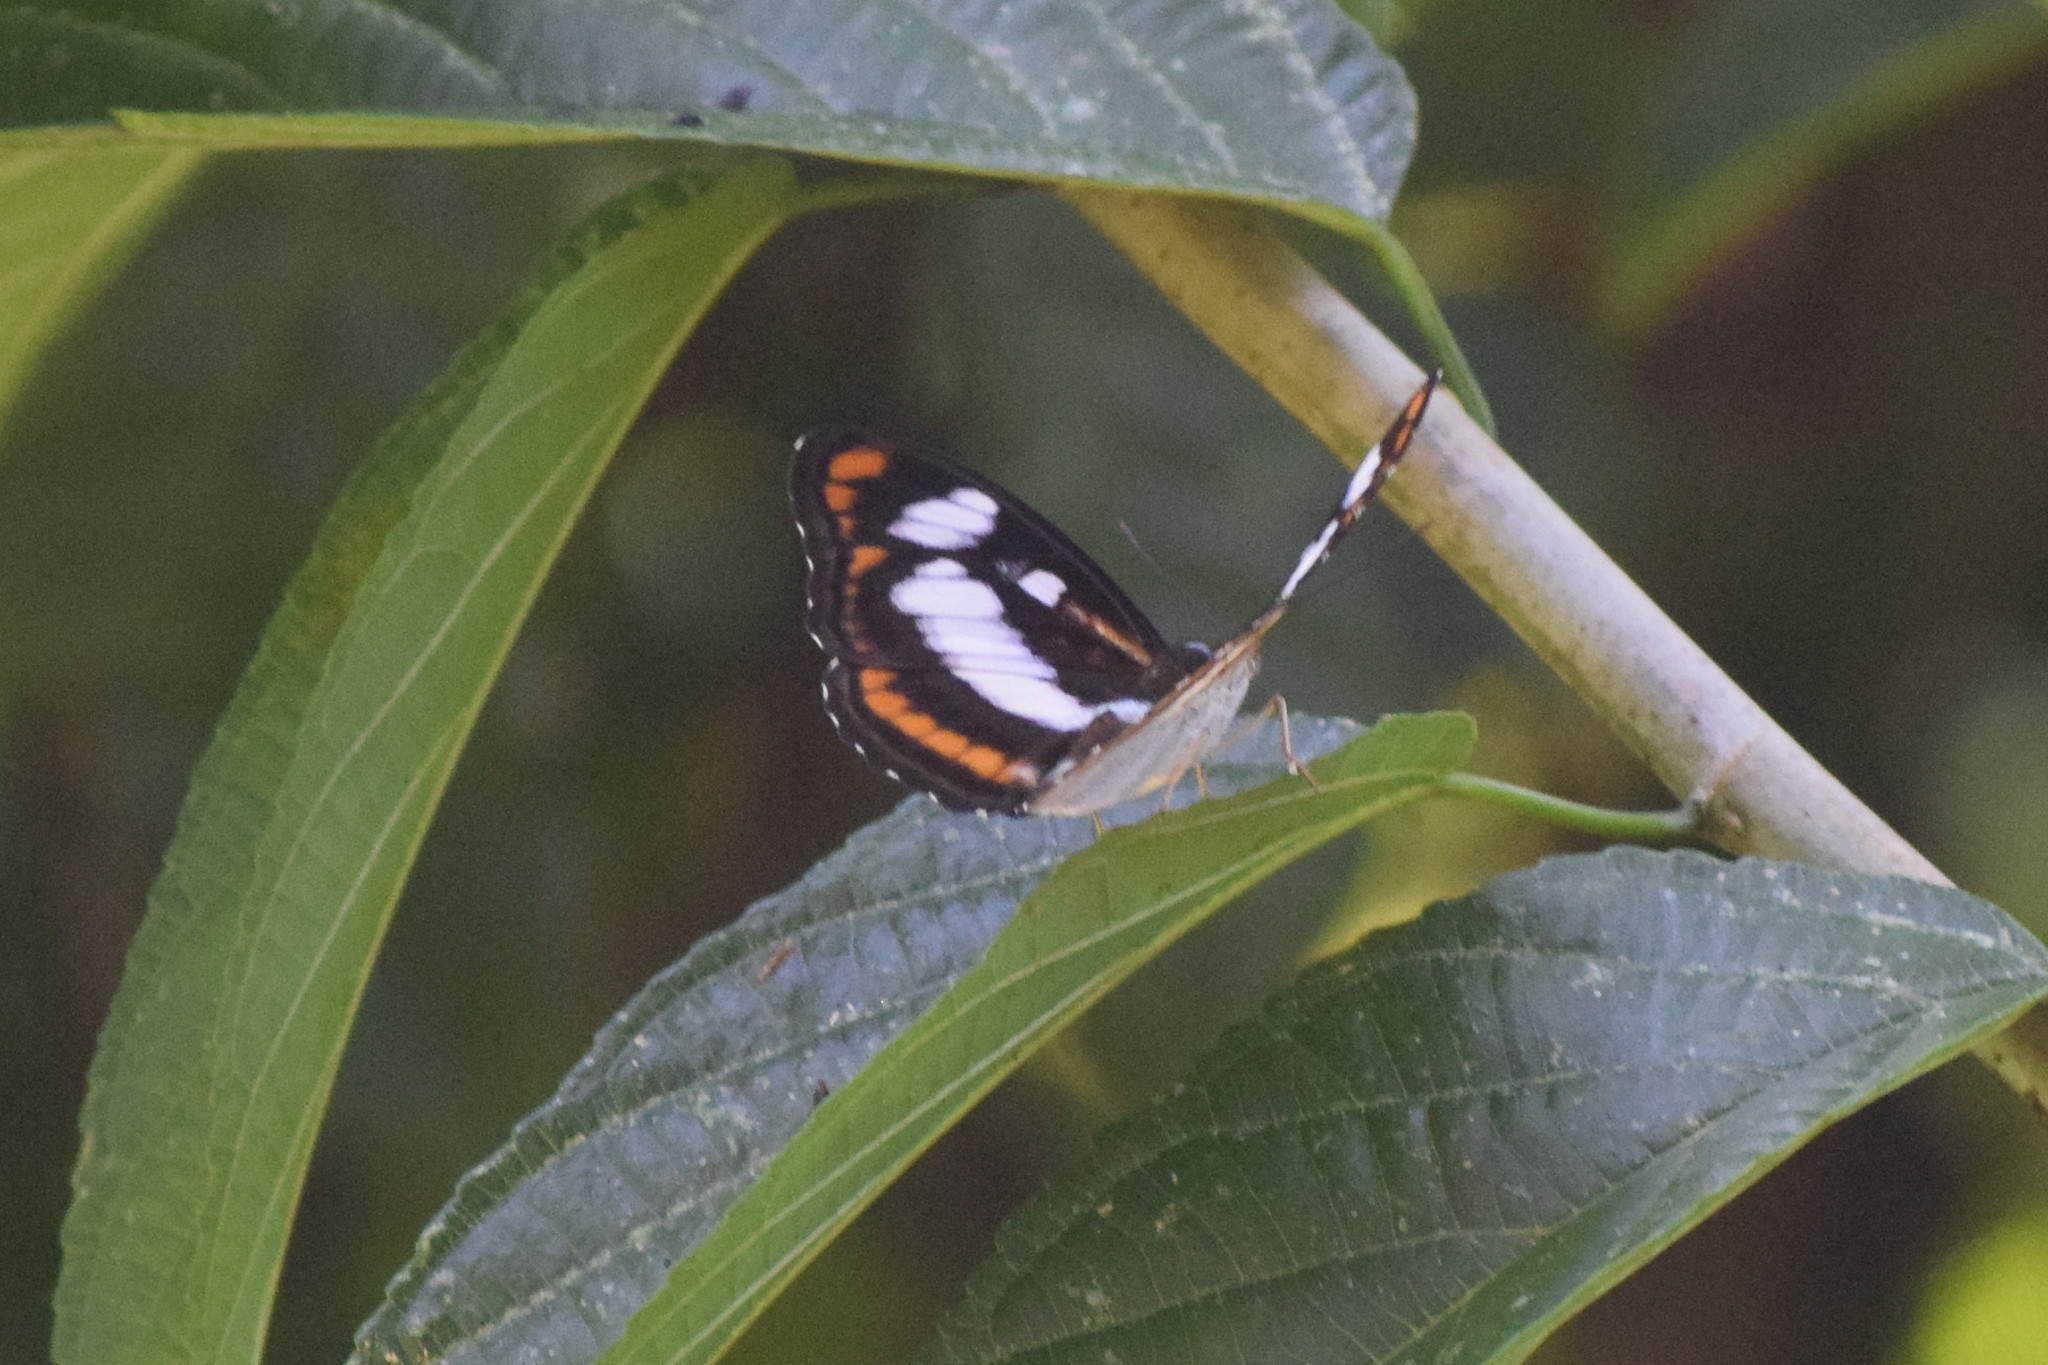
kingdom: Animalia
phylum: Arthropoda
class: Insecta
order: Lepidoptera
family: Nymphalidae
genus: Parathyma
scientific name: Parathyma nefte
